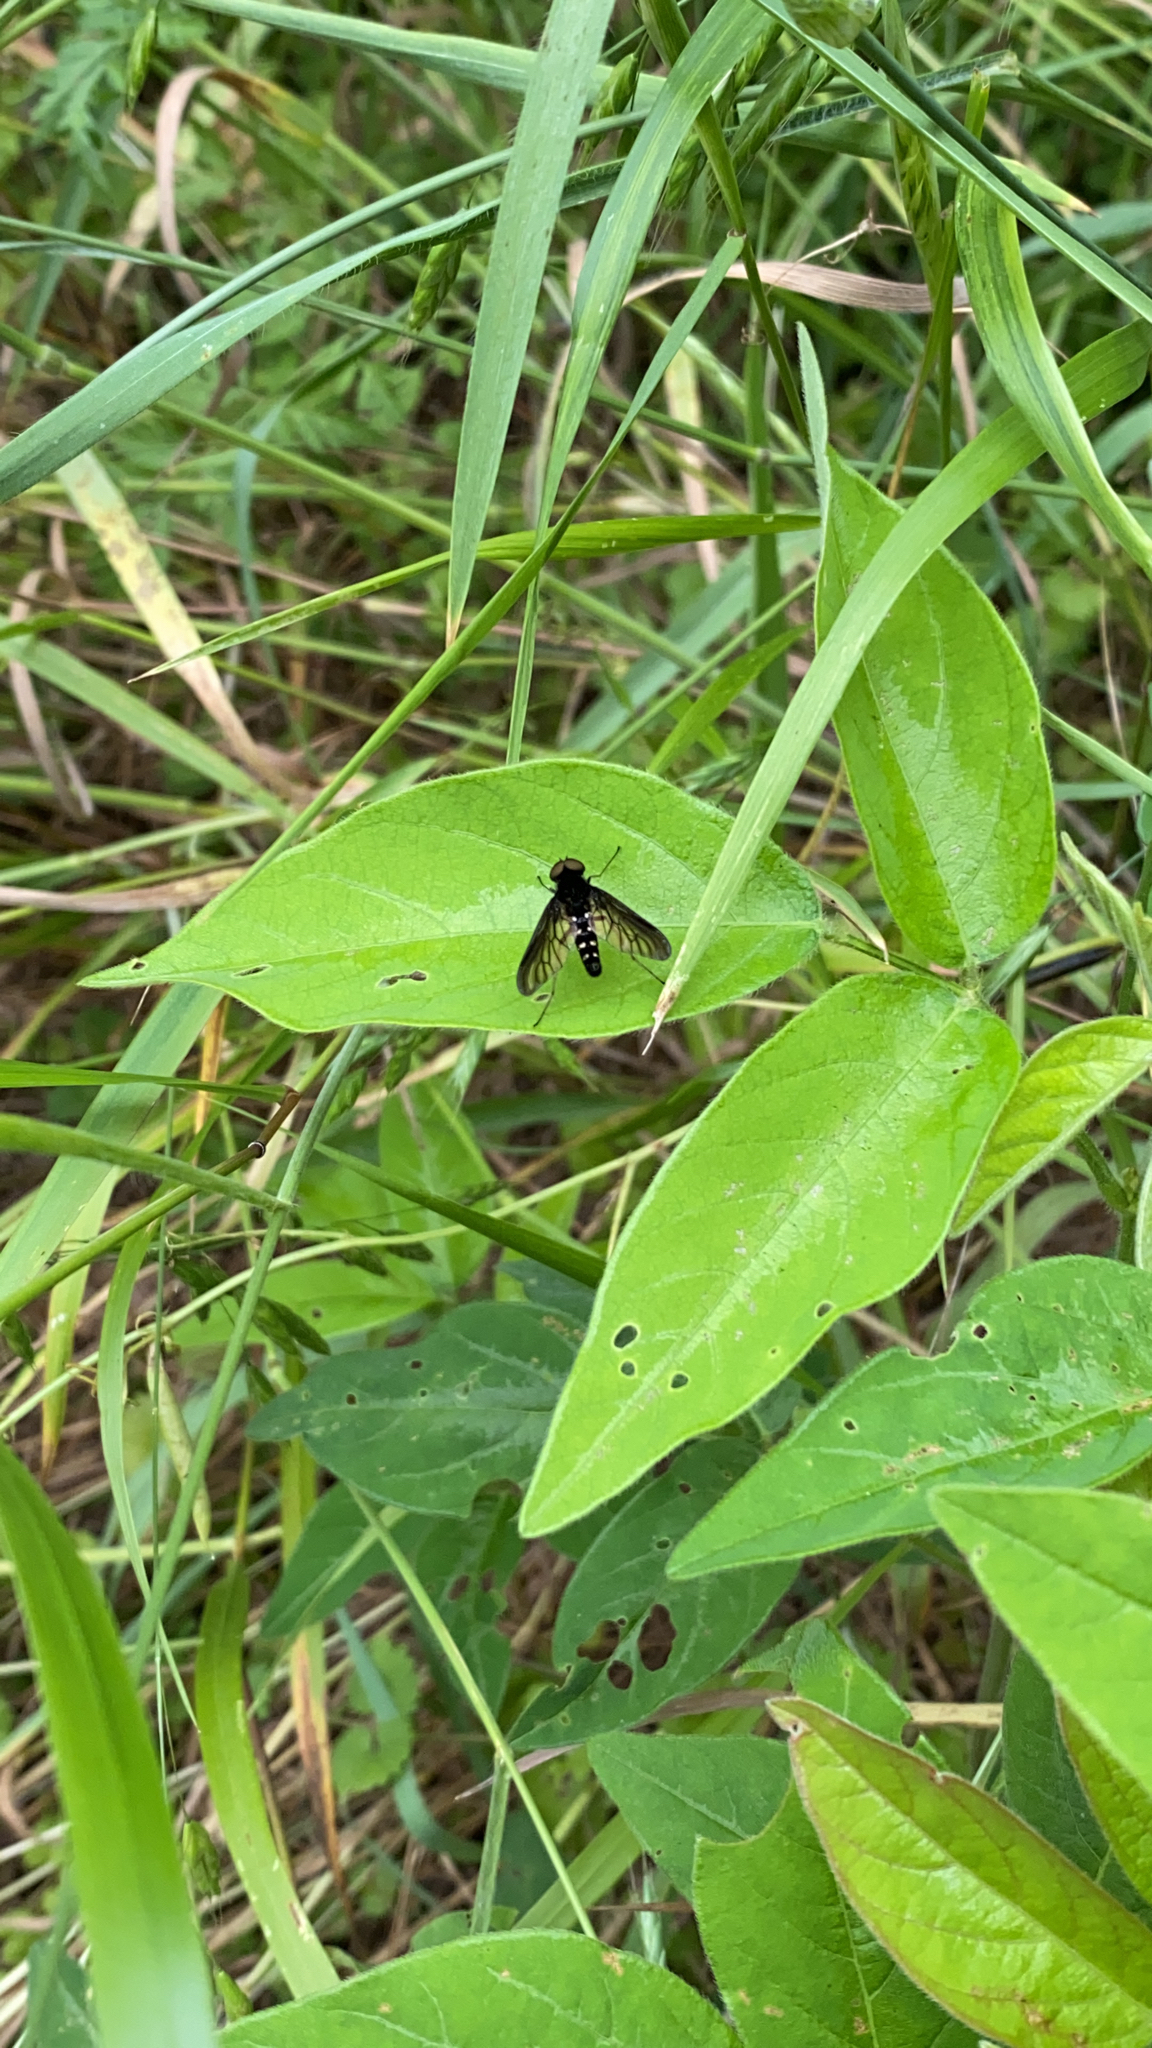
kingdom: Animalia
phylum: Arthropoda
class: Insecta
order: Diptera
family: Rhagionidae
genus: Chrysopilus
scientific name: Chrysopilus thoracicus
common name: Golden-backed snipe fly
